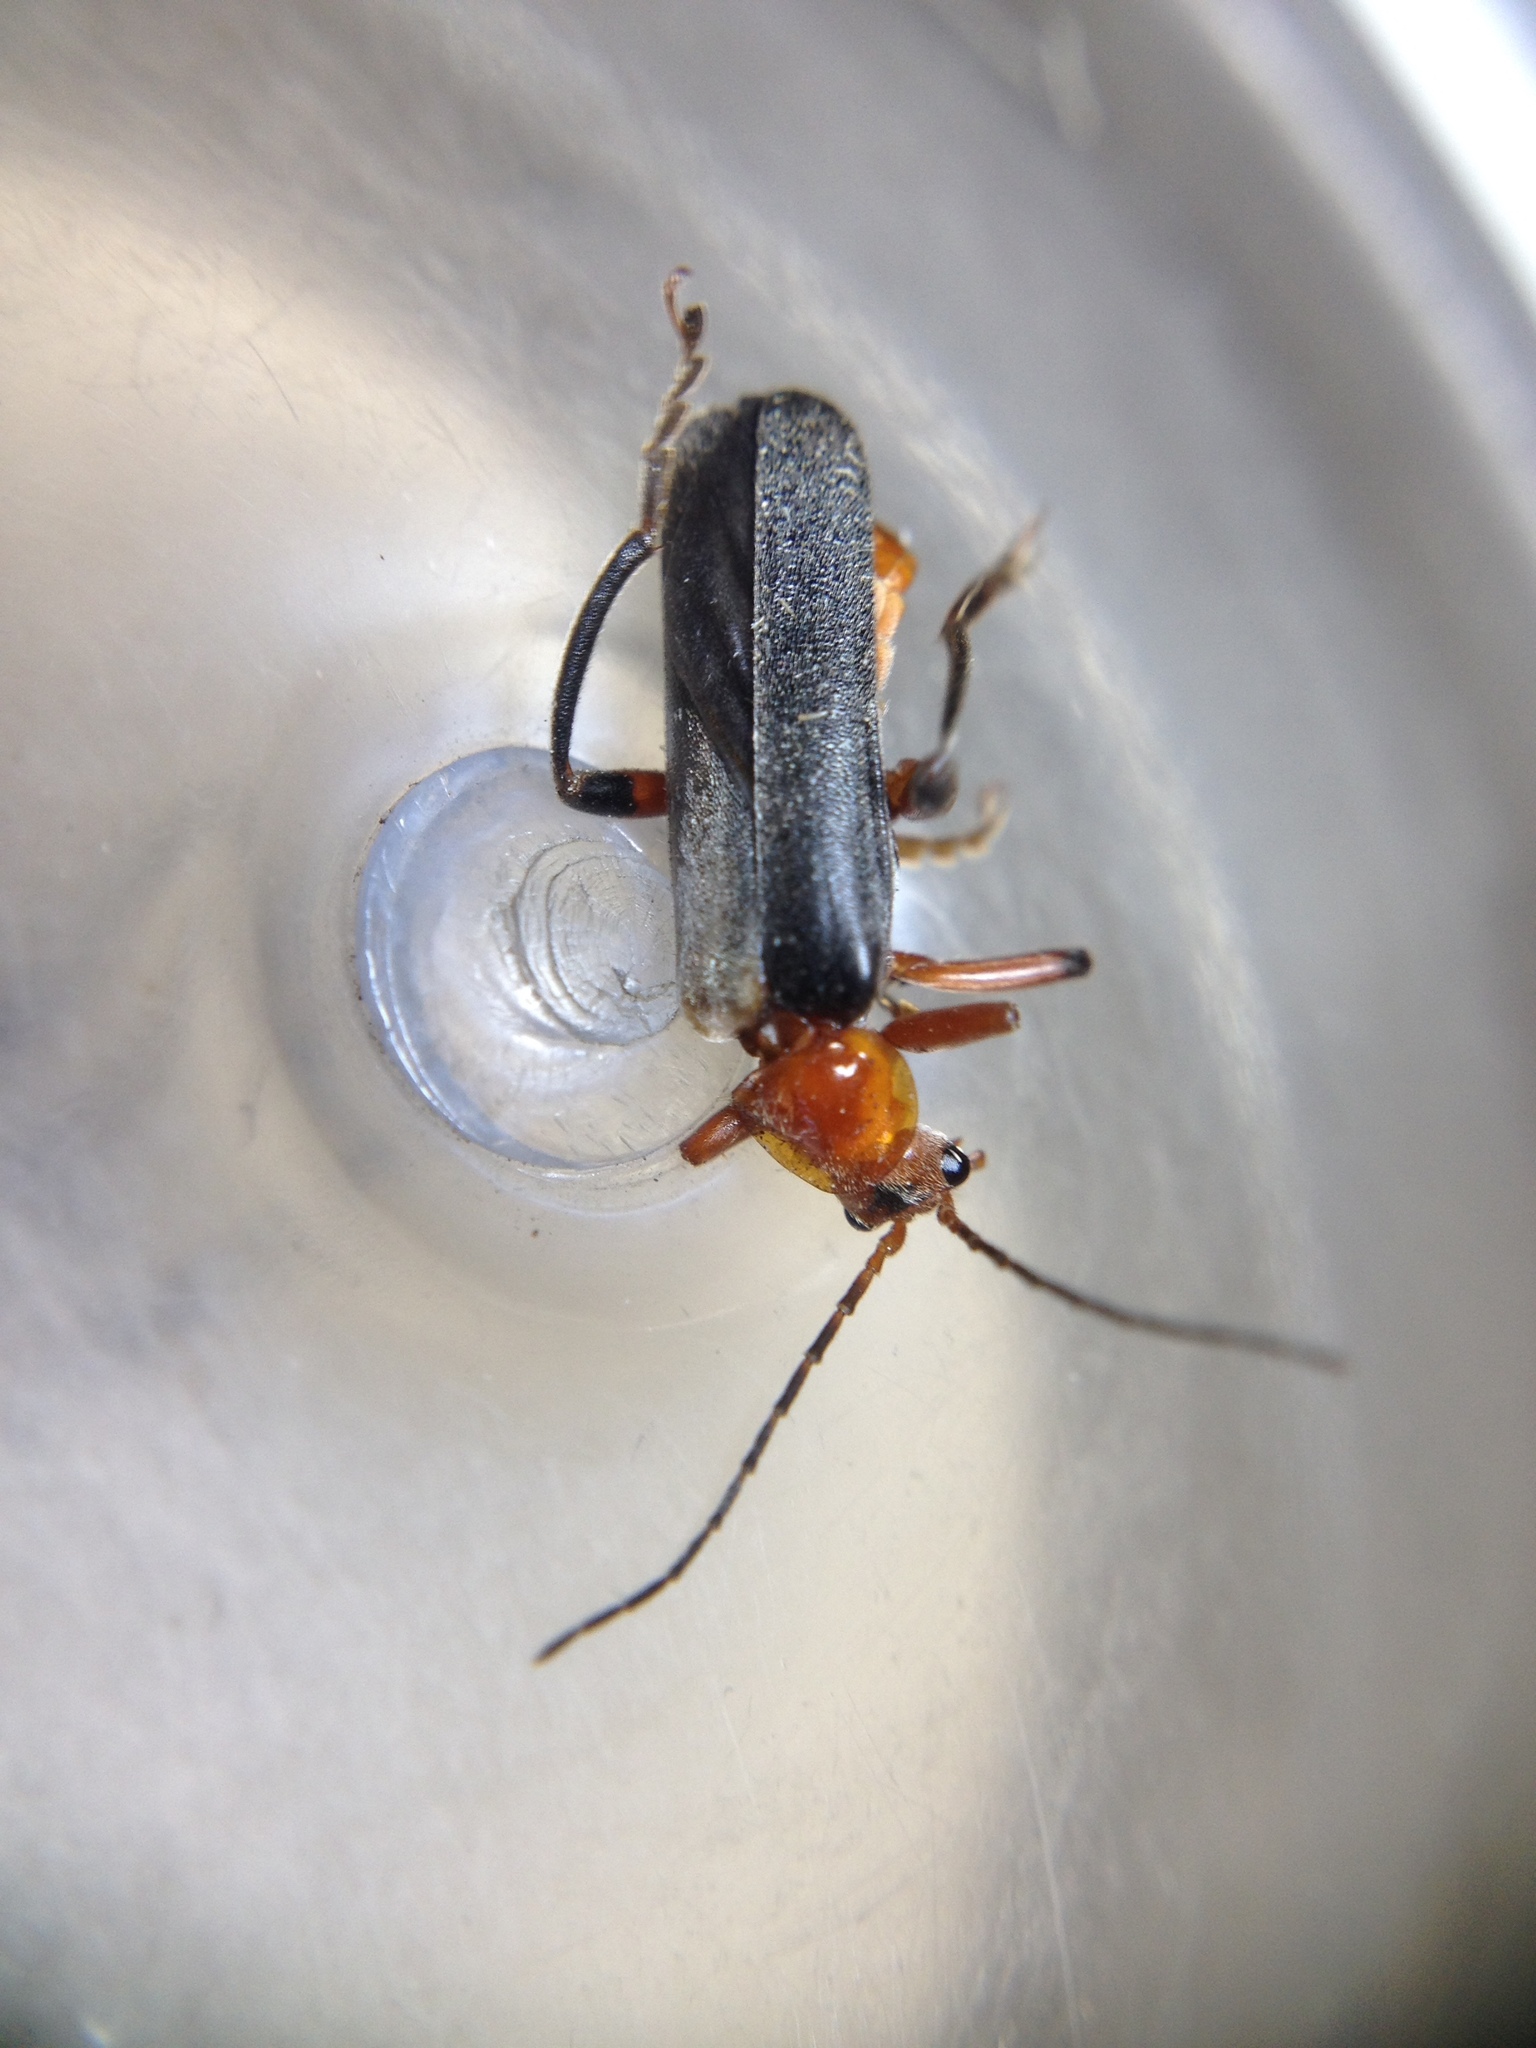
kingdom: Animalia
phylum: Arthropoda
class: Insecta
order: Coleoptera
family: Cantharidae
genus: Cantharis
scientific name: Cantharis pellucida
